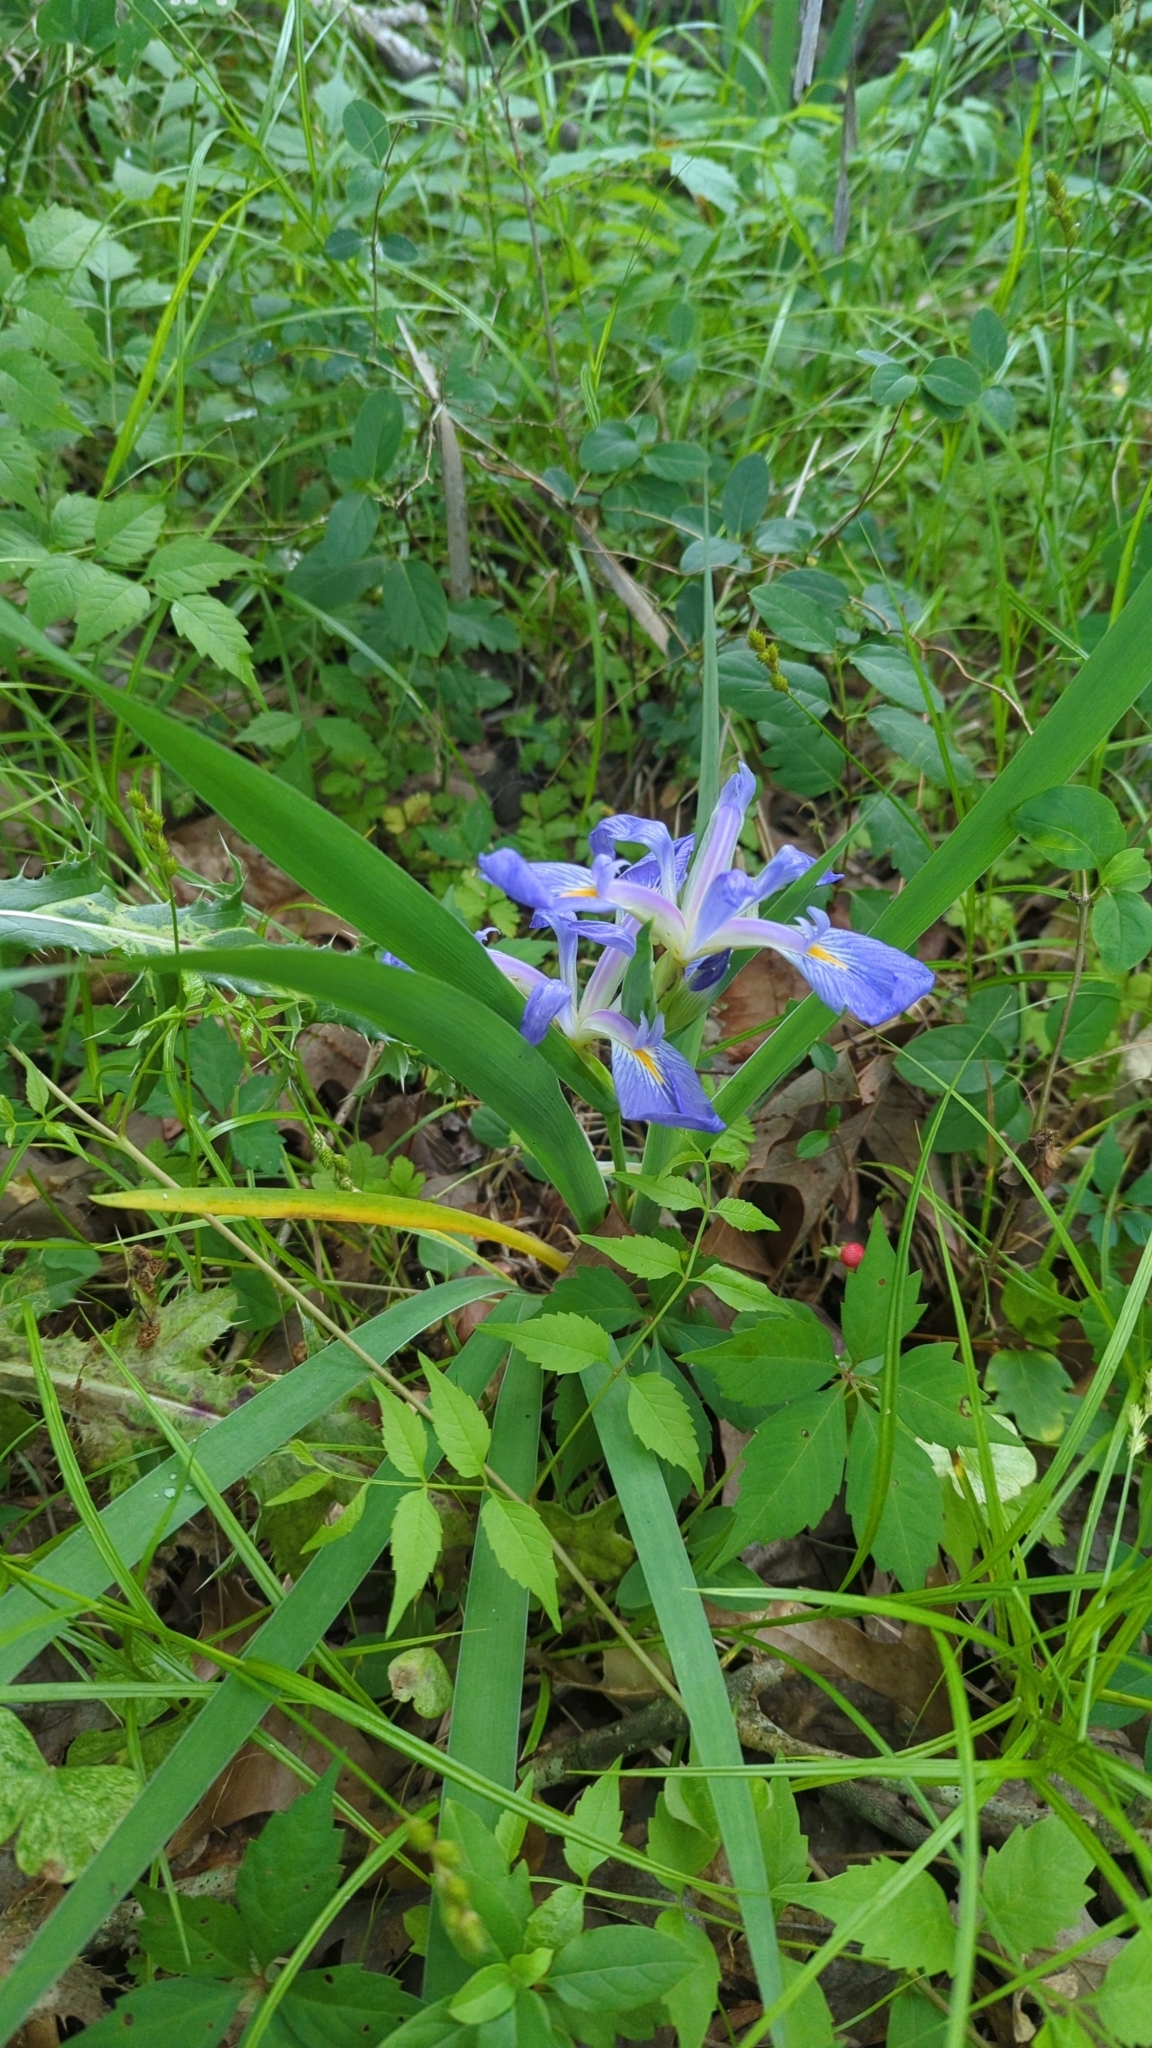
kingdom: Plantae
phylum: Tracheophyta
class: Liliopsida
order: Asparagales
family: Iridaceae
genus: Iris
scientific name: Iris brevicaulis
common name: Zigzag iris
